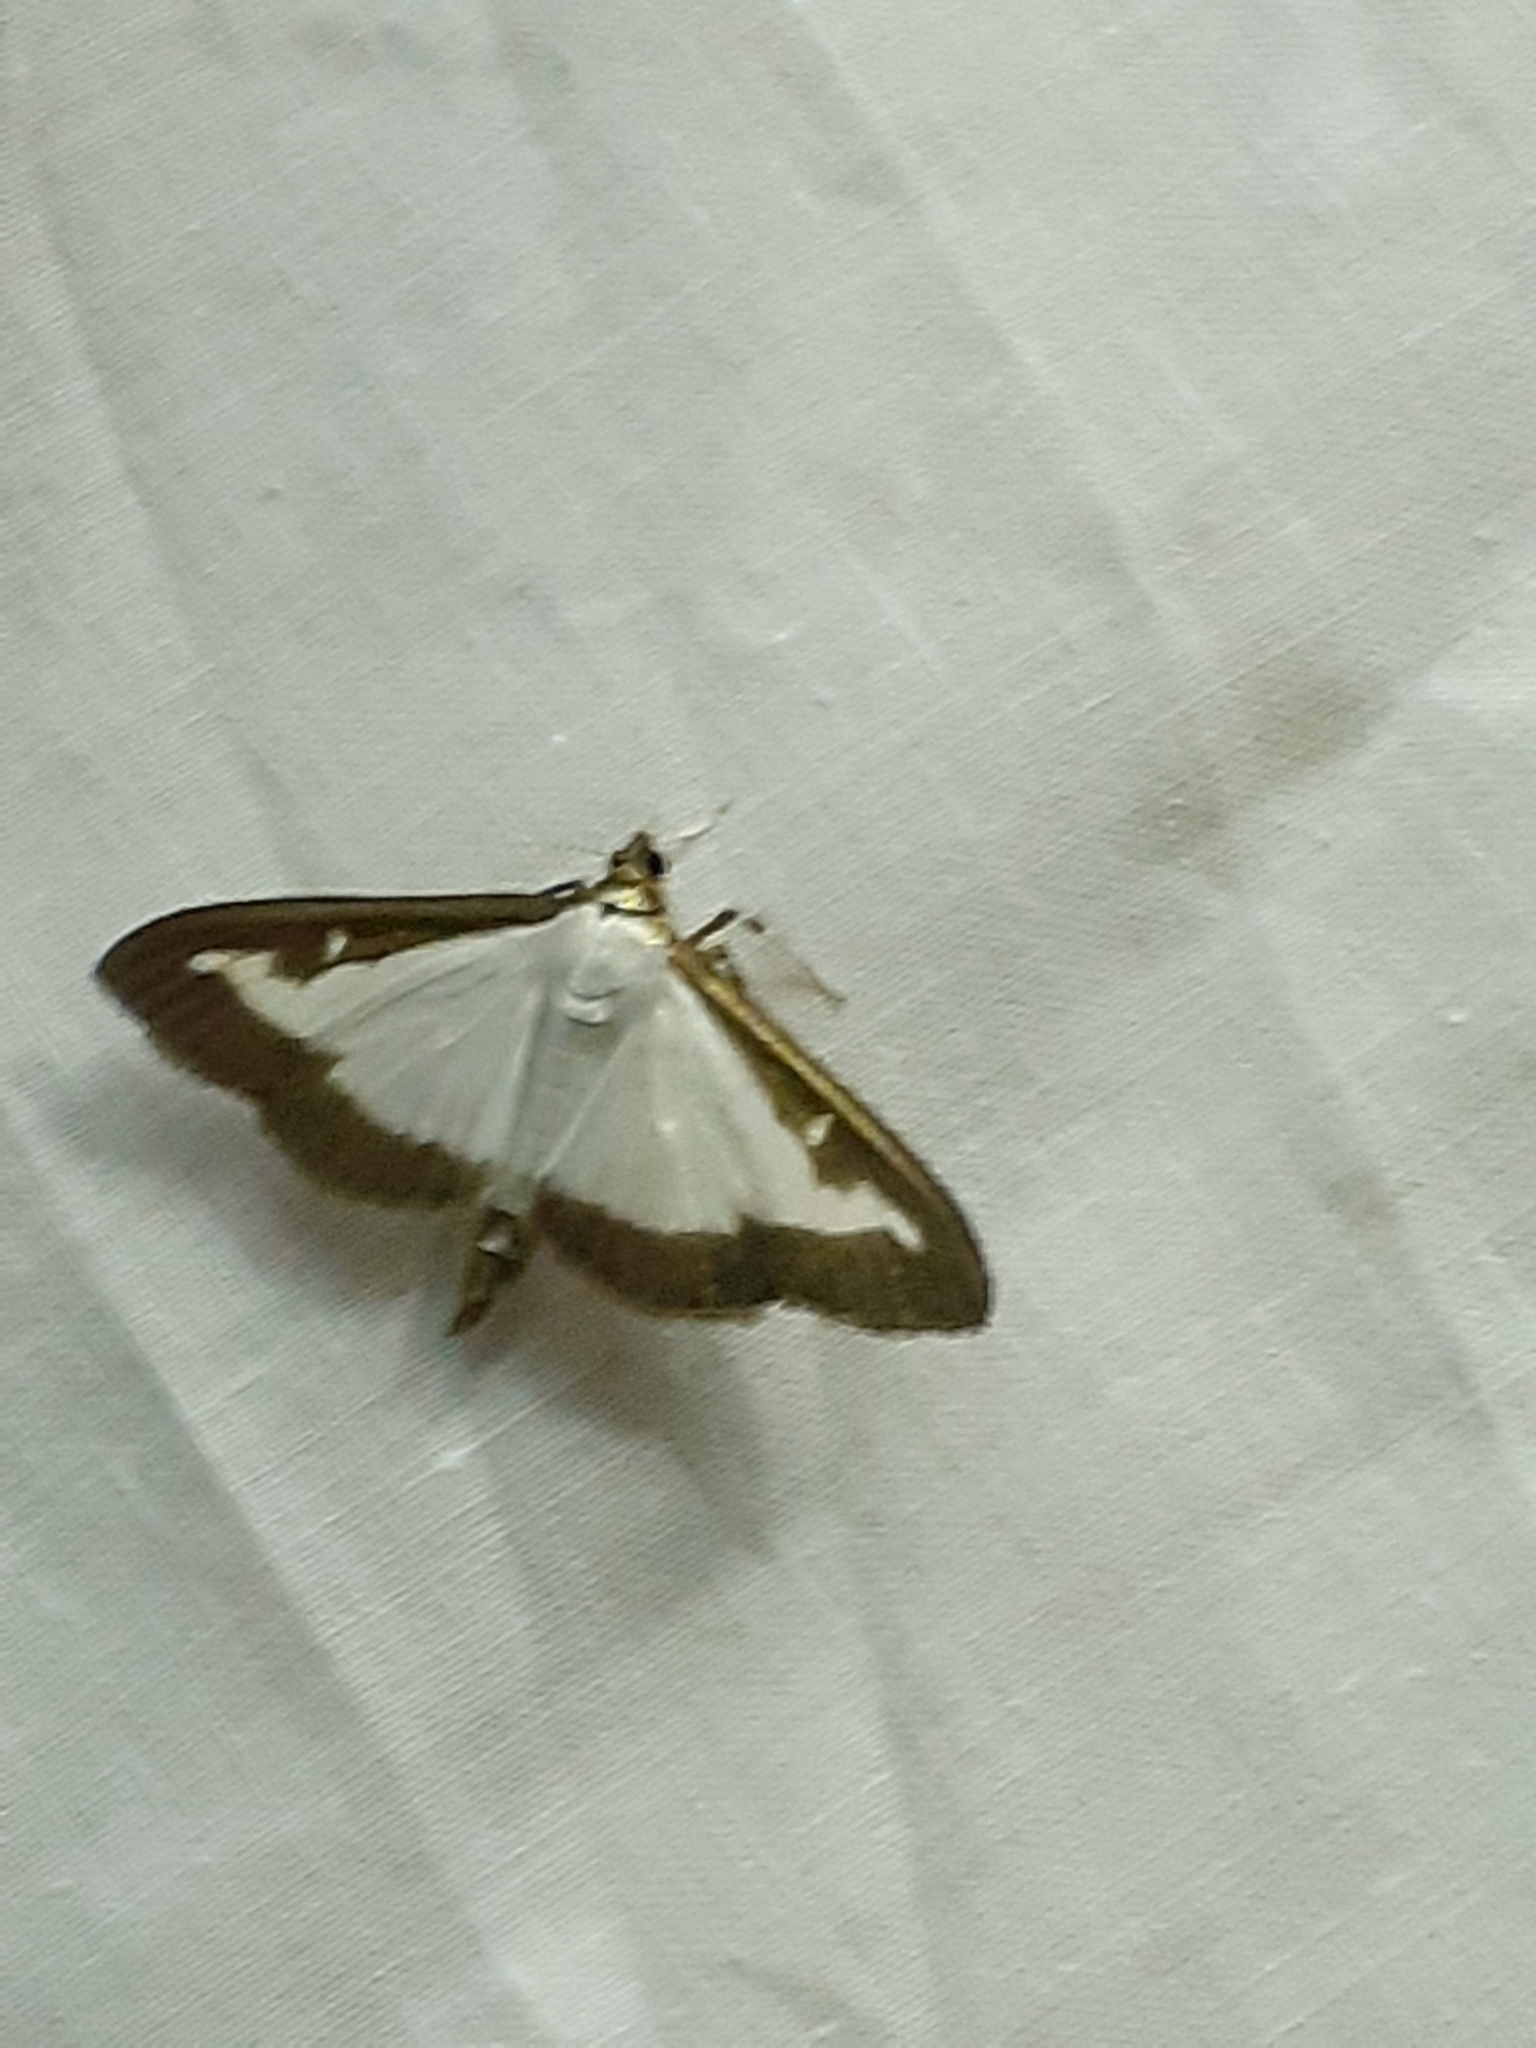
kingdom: Animalia
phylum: Arthropoda
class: Insecta
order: Lepidoptera
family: Crambidae
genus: Cydalima
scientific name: Cydalima perspectalis
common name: Box tree moth
